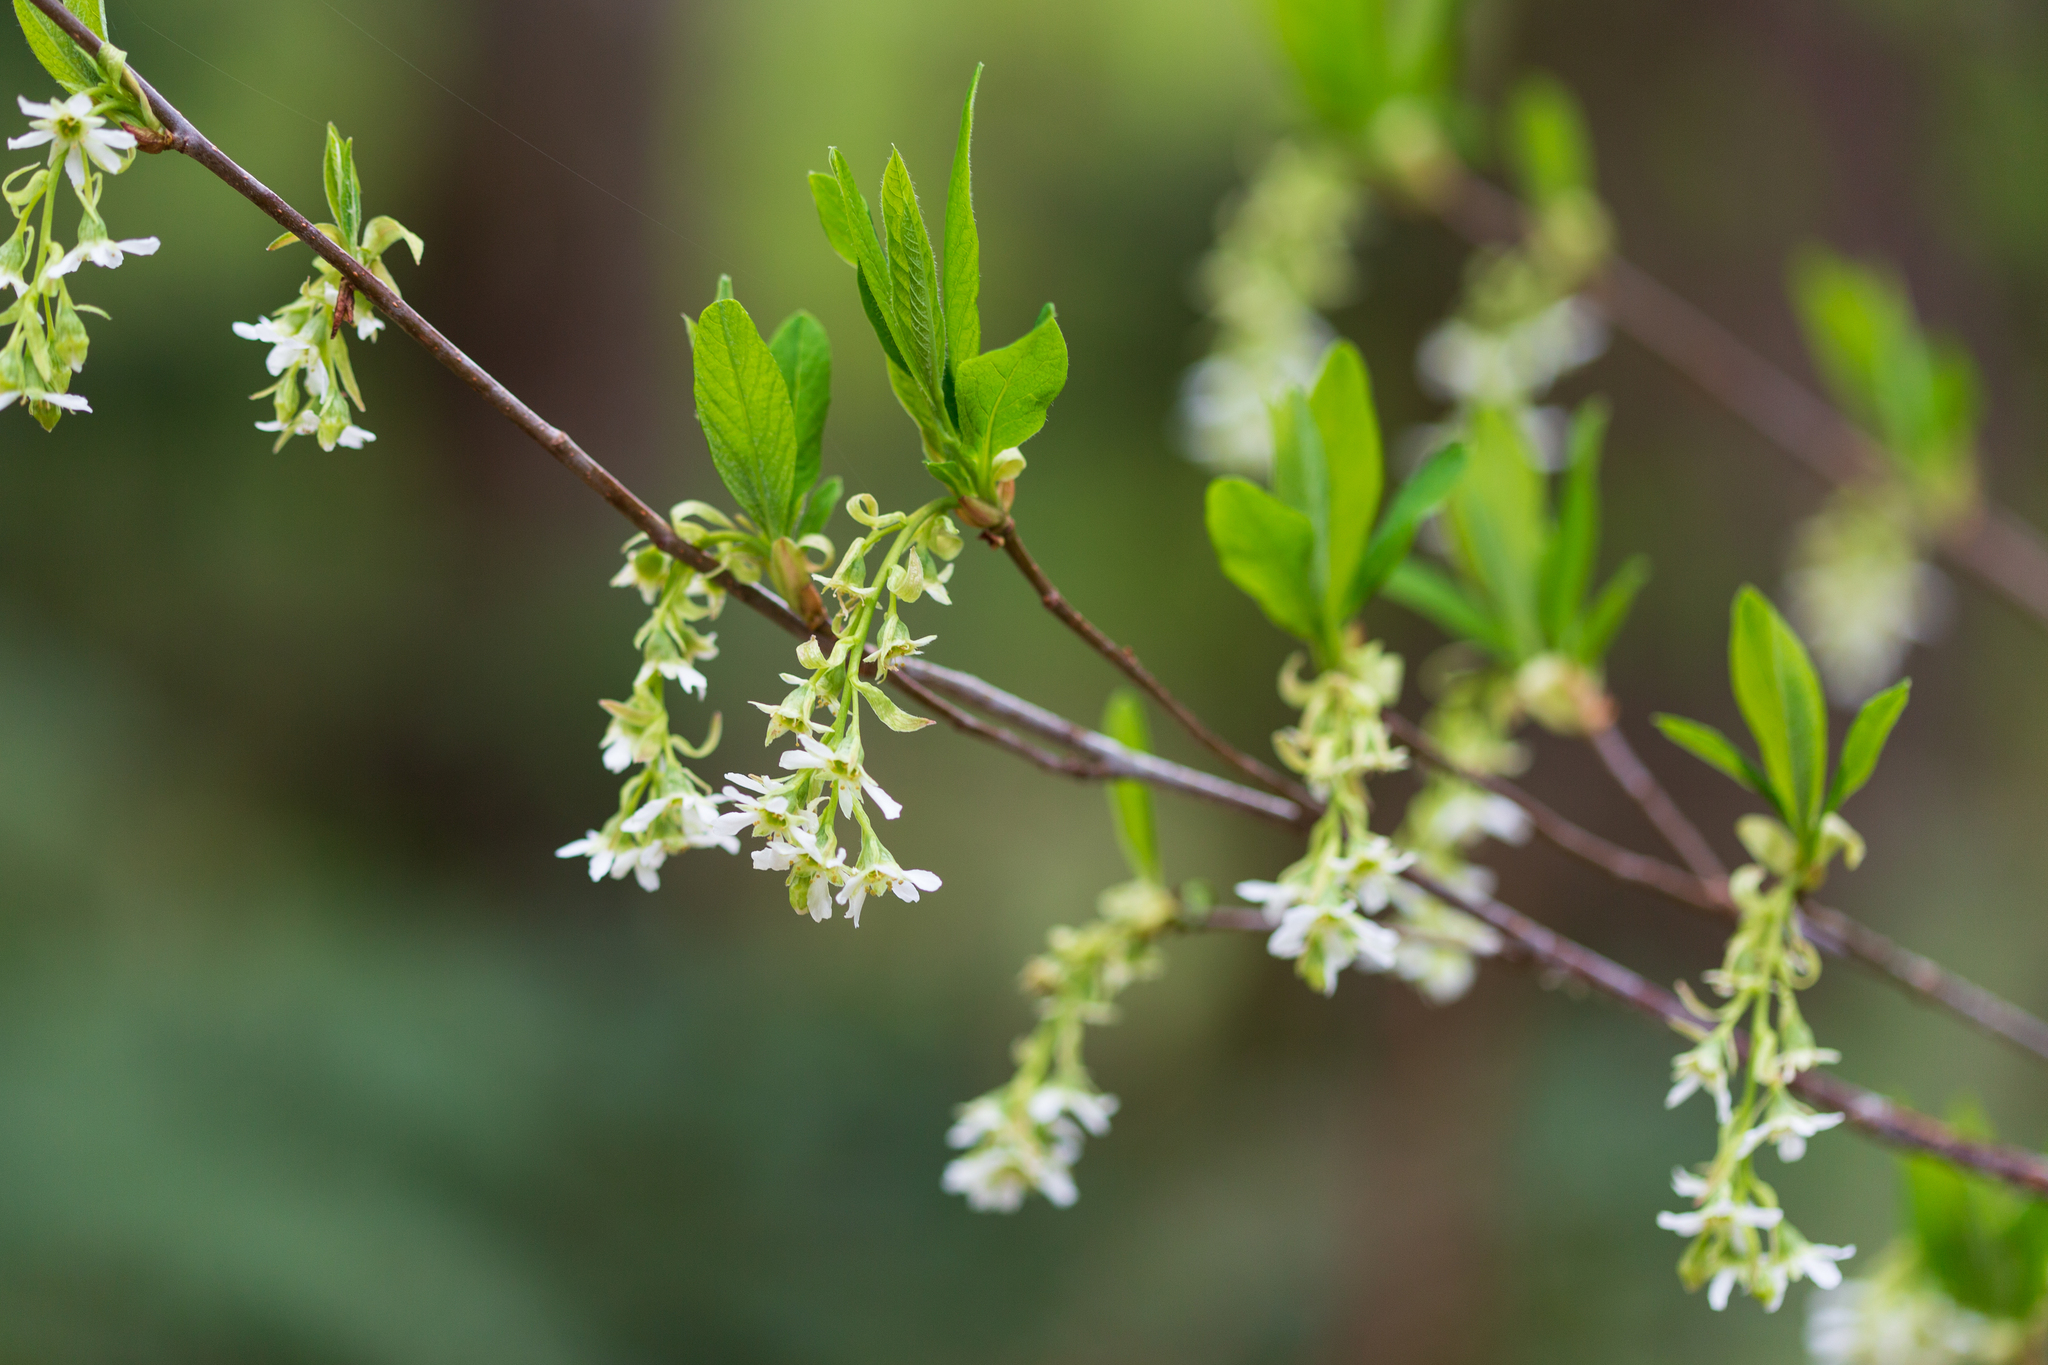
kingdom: Plantae
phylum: Tracheophyta
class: Magnoliopsida
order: Rosales
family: Rosaceae
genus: Oemleria
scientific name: Oemleria cerasiformis
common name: Osoberry
